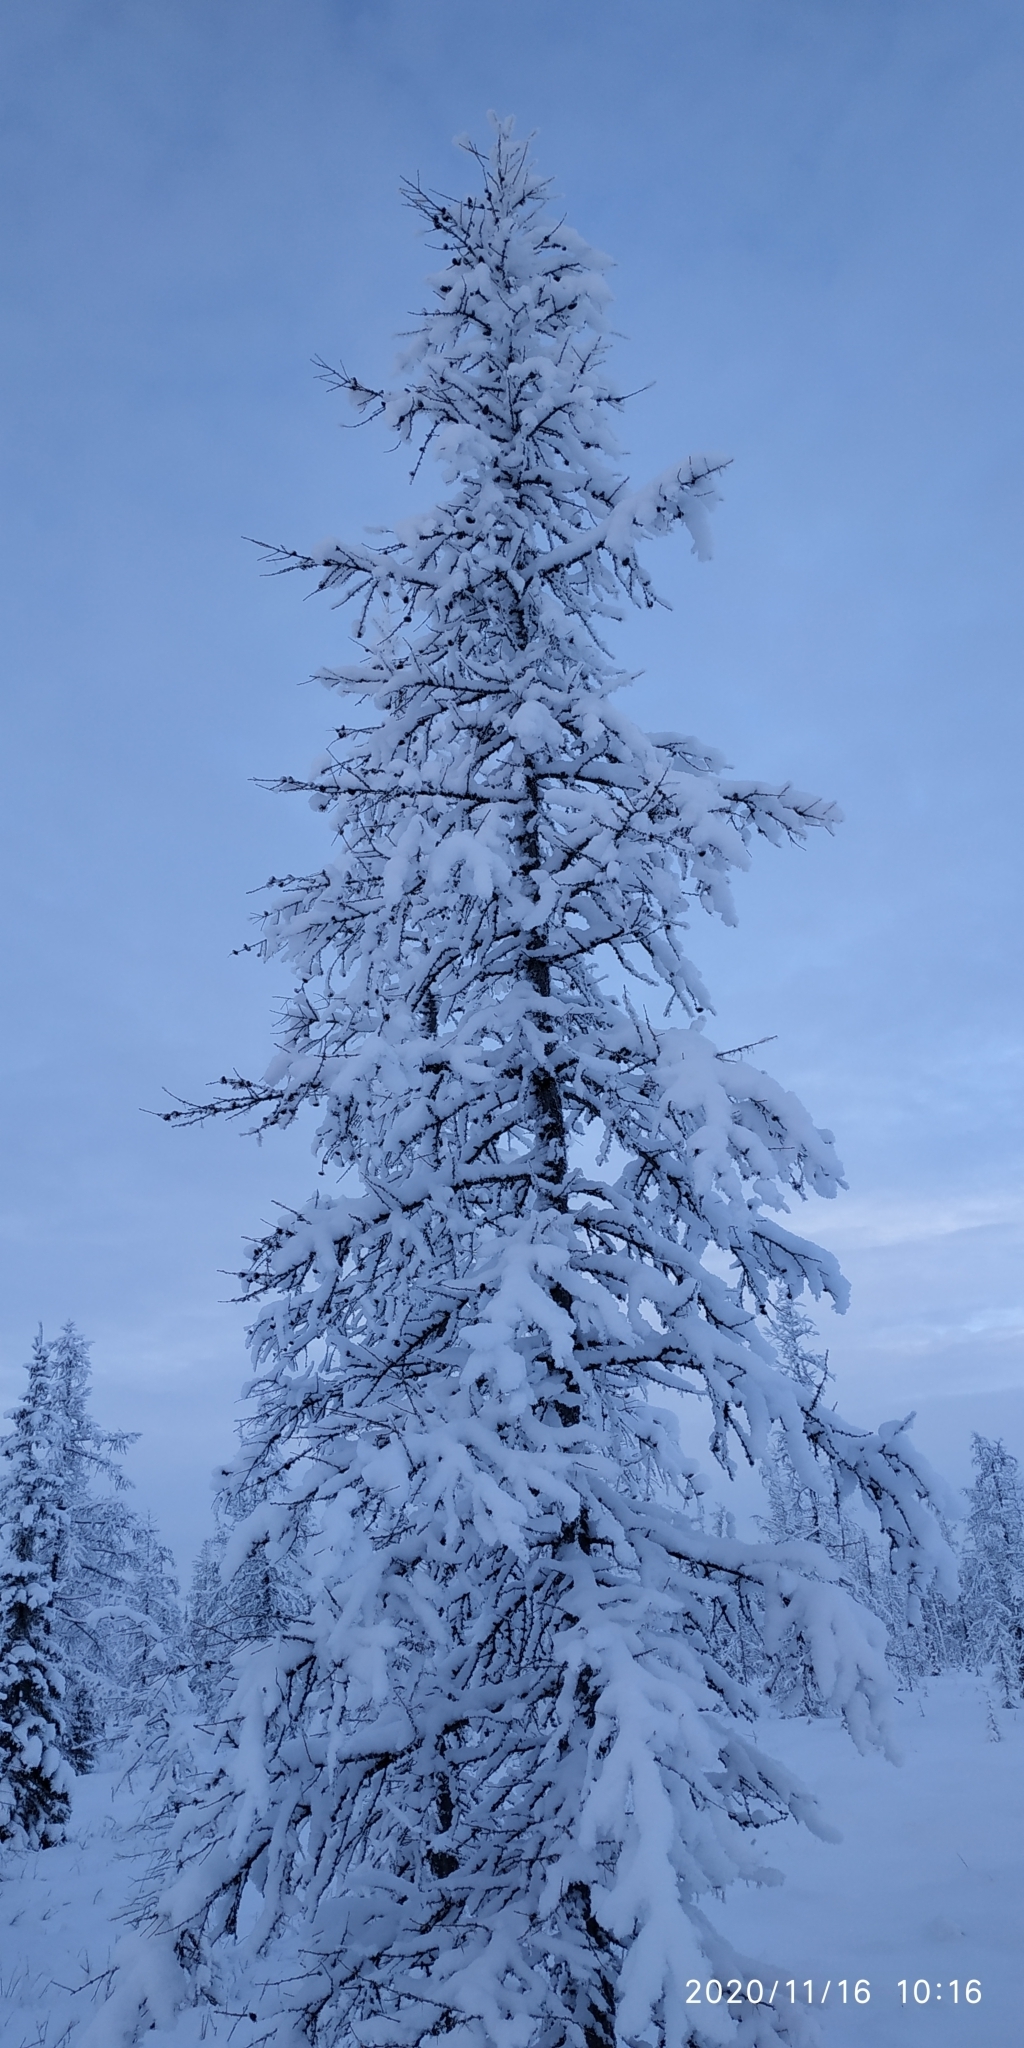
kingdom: Plantae
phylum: Tracheophyta
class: Pinopsida
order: Pinales
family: Pinaceae
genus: Larix
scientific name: Larix sibirica
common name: Siberian larch
